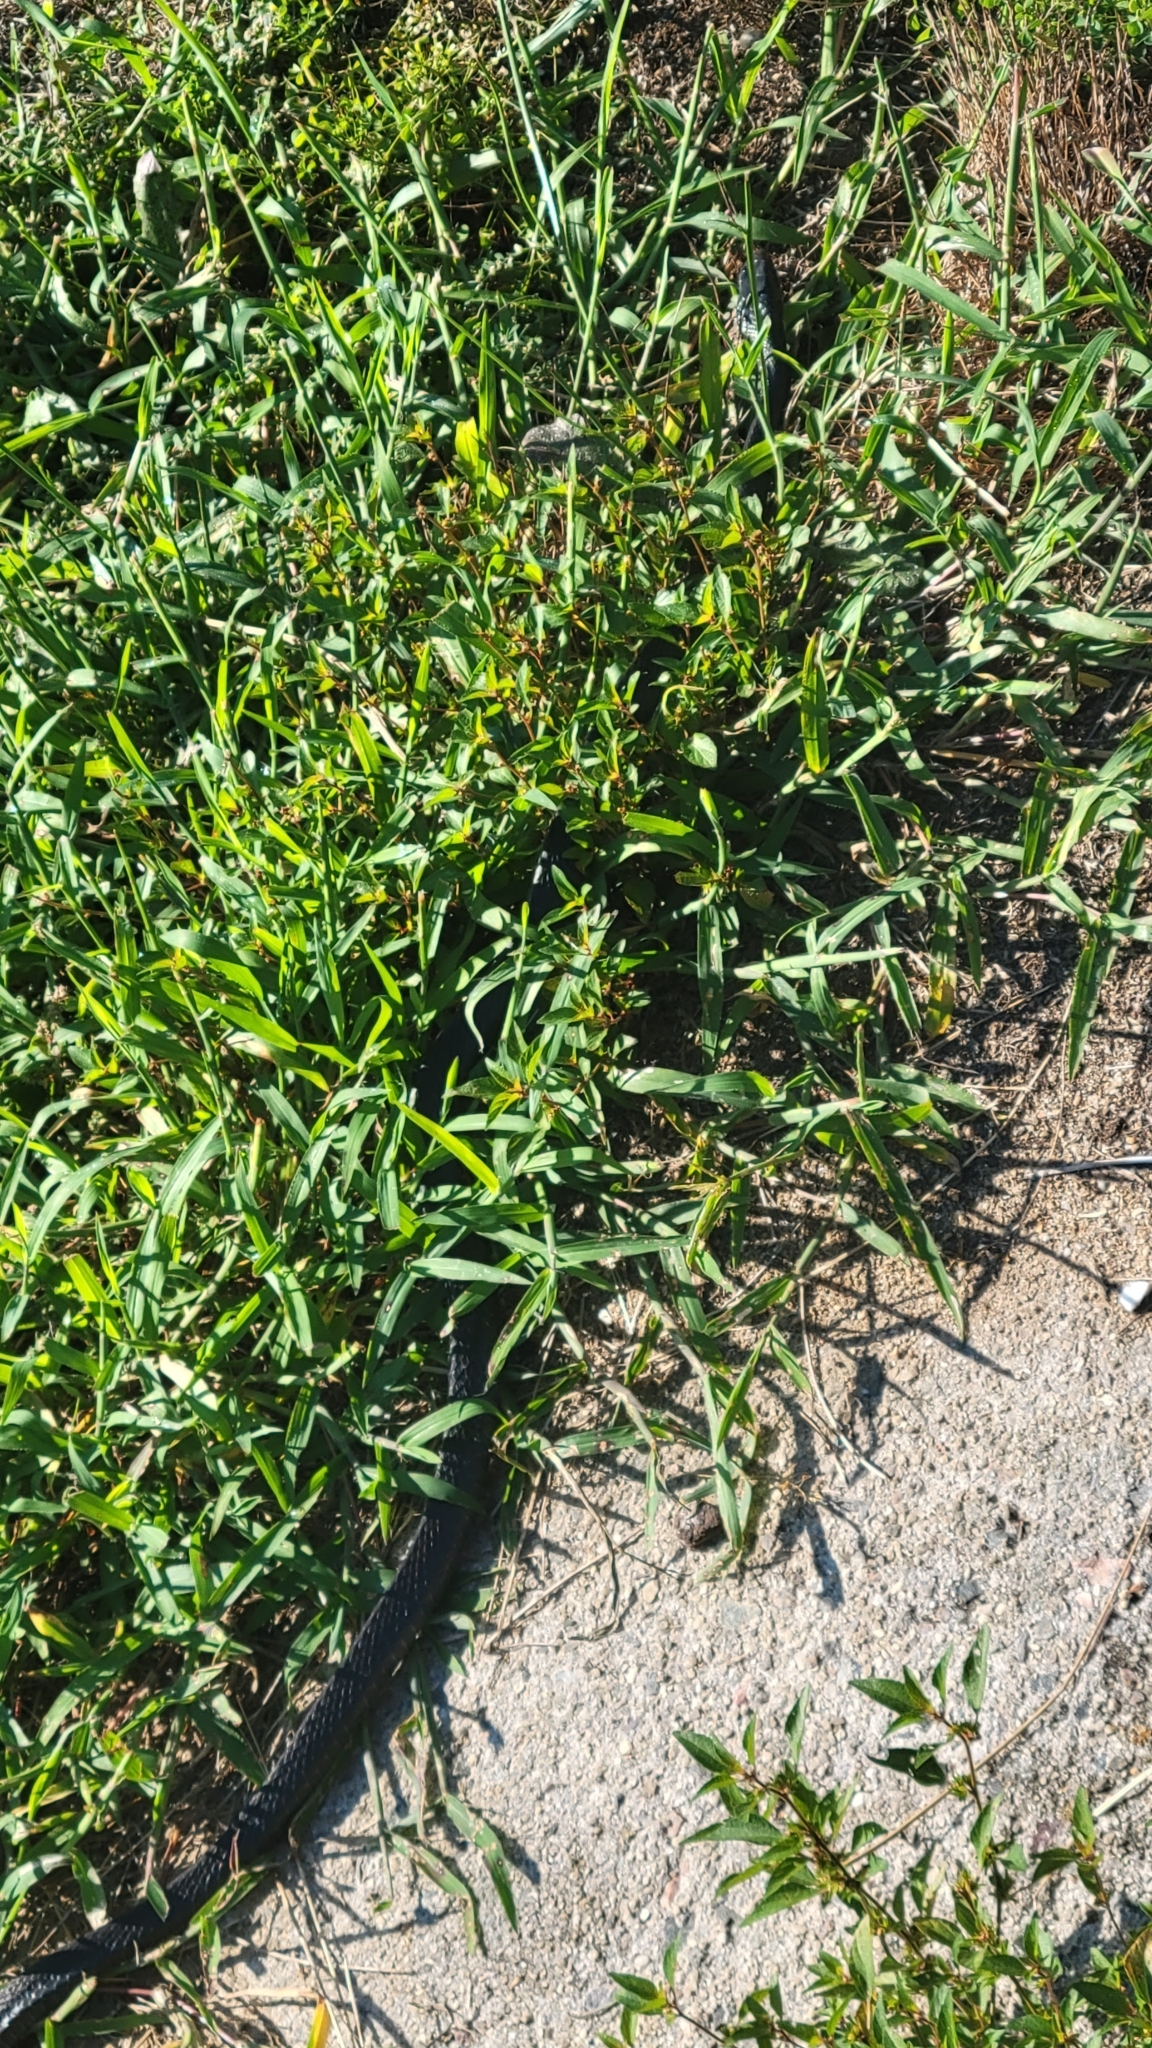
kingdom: Animalia
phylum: Chordata
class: Squamata
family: Colubridae
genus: Coluber
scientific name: Coluber constrictor
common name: Eastern racer
